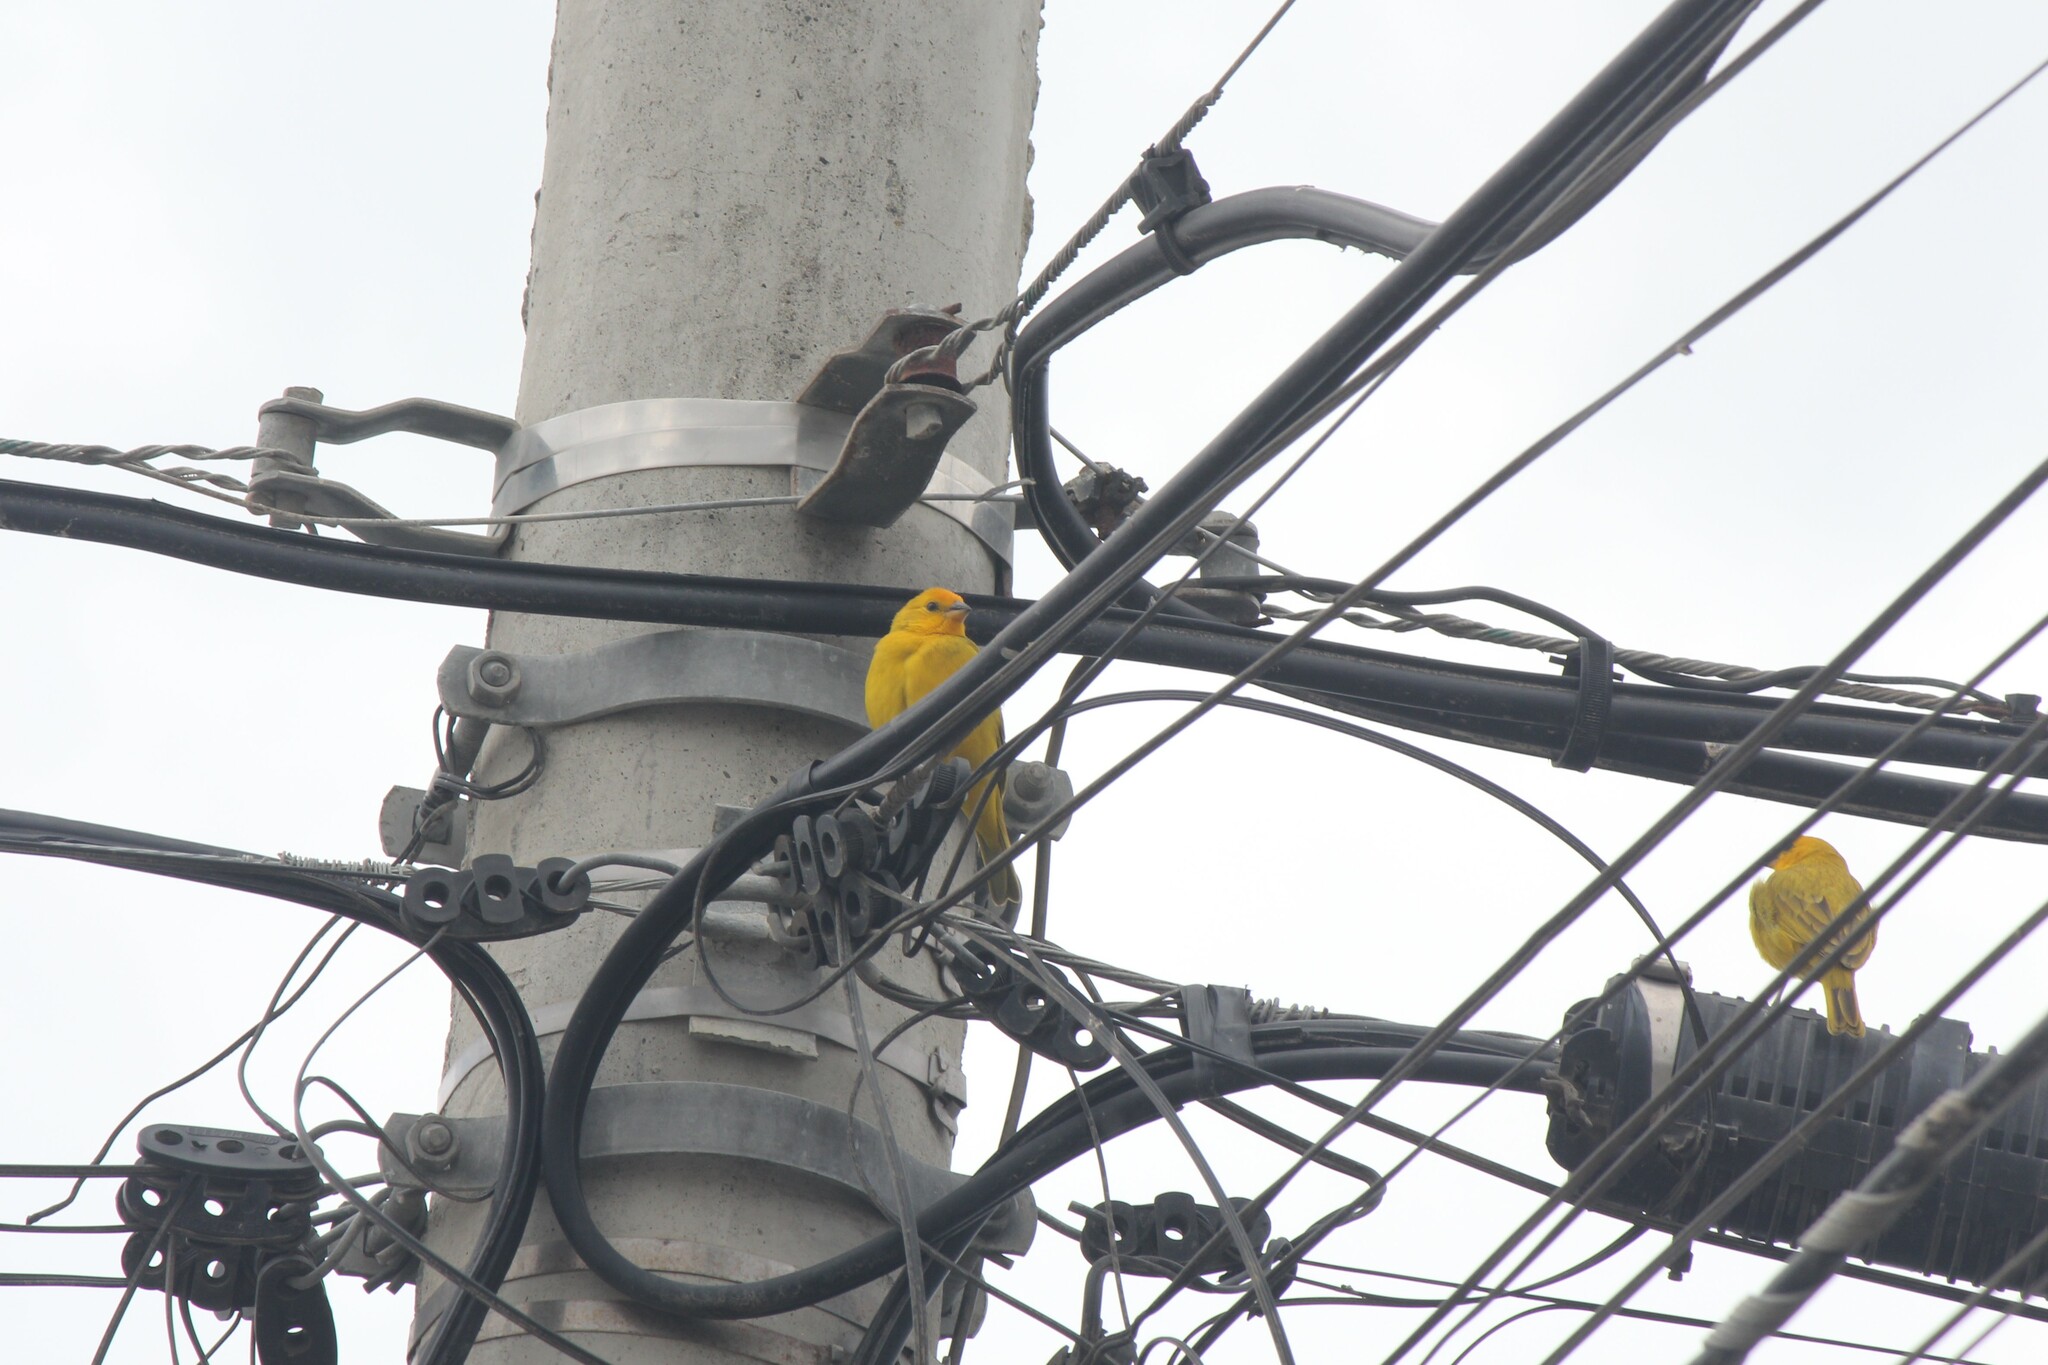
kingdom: Animalia
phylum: Chordata
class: Aves
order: Passeriformes
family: Thraupidae
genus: Sicalis
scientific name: Sicalis flaveola
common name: Saffron finch
